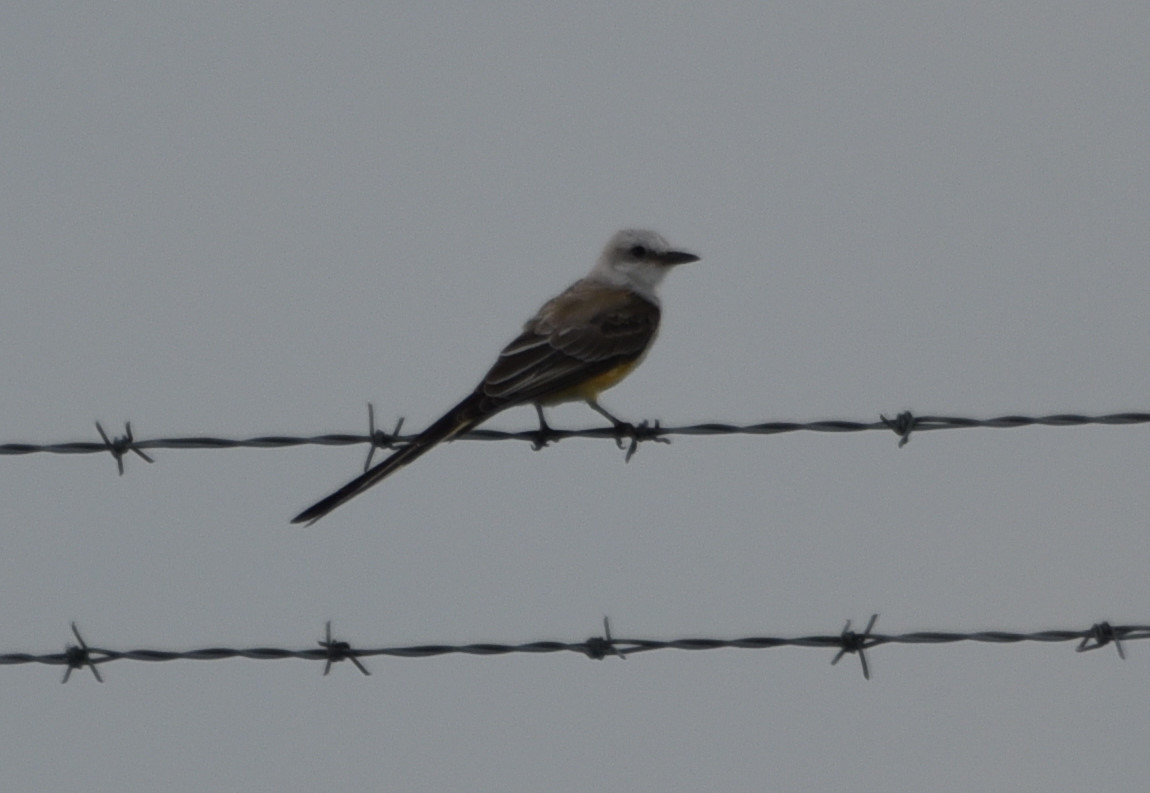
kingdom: Animalia
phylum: Chordata
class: Aves
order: Passeriformes
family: Tyrannidae
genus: Tyrannus
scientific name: Tyrannus forficatus
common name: Scissor-tailed flycatcher
